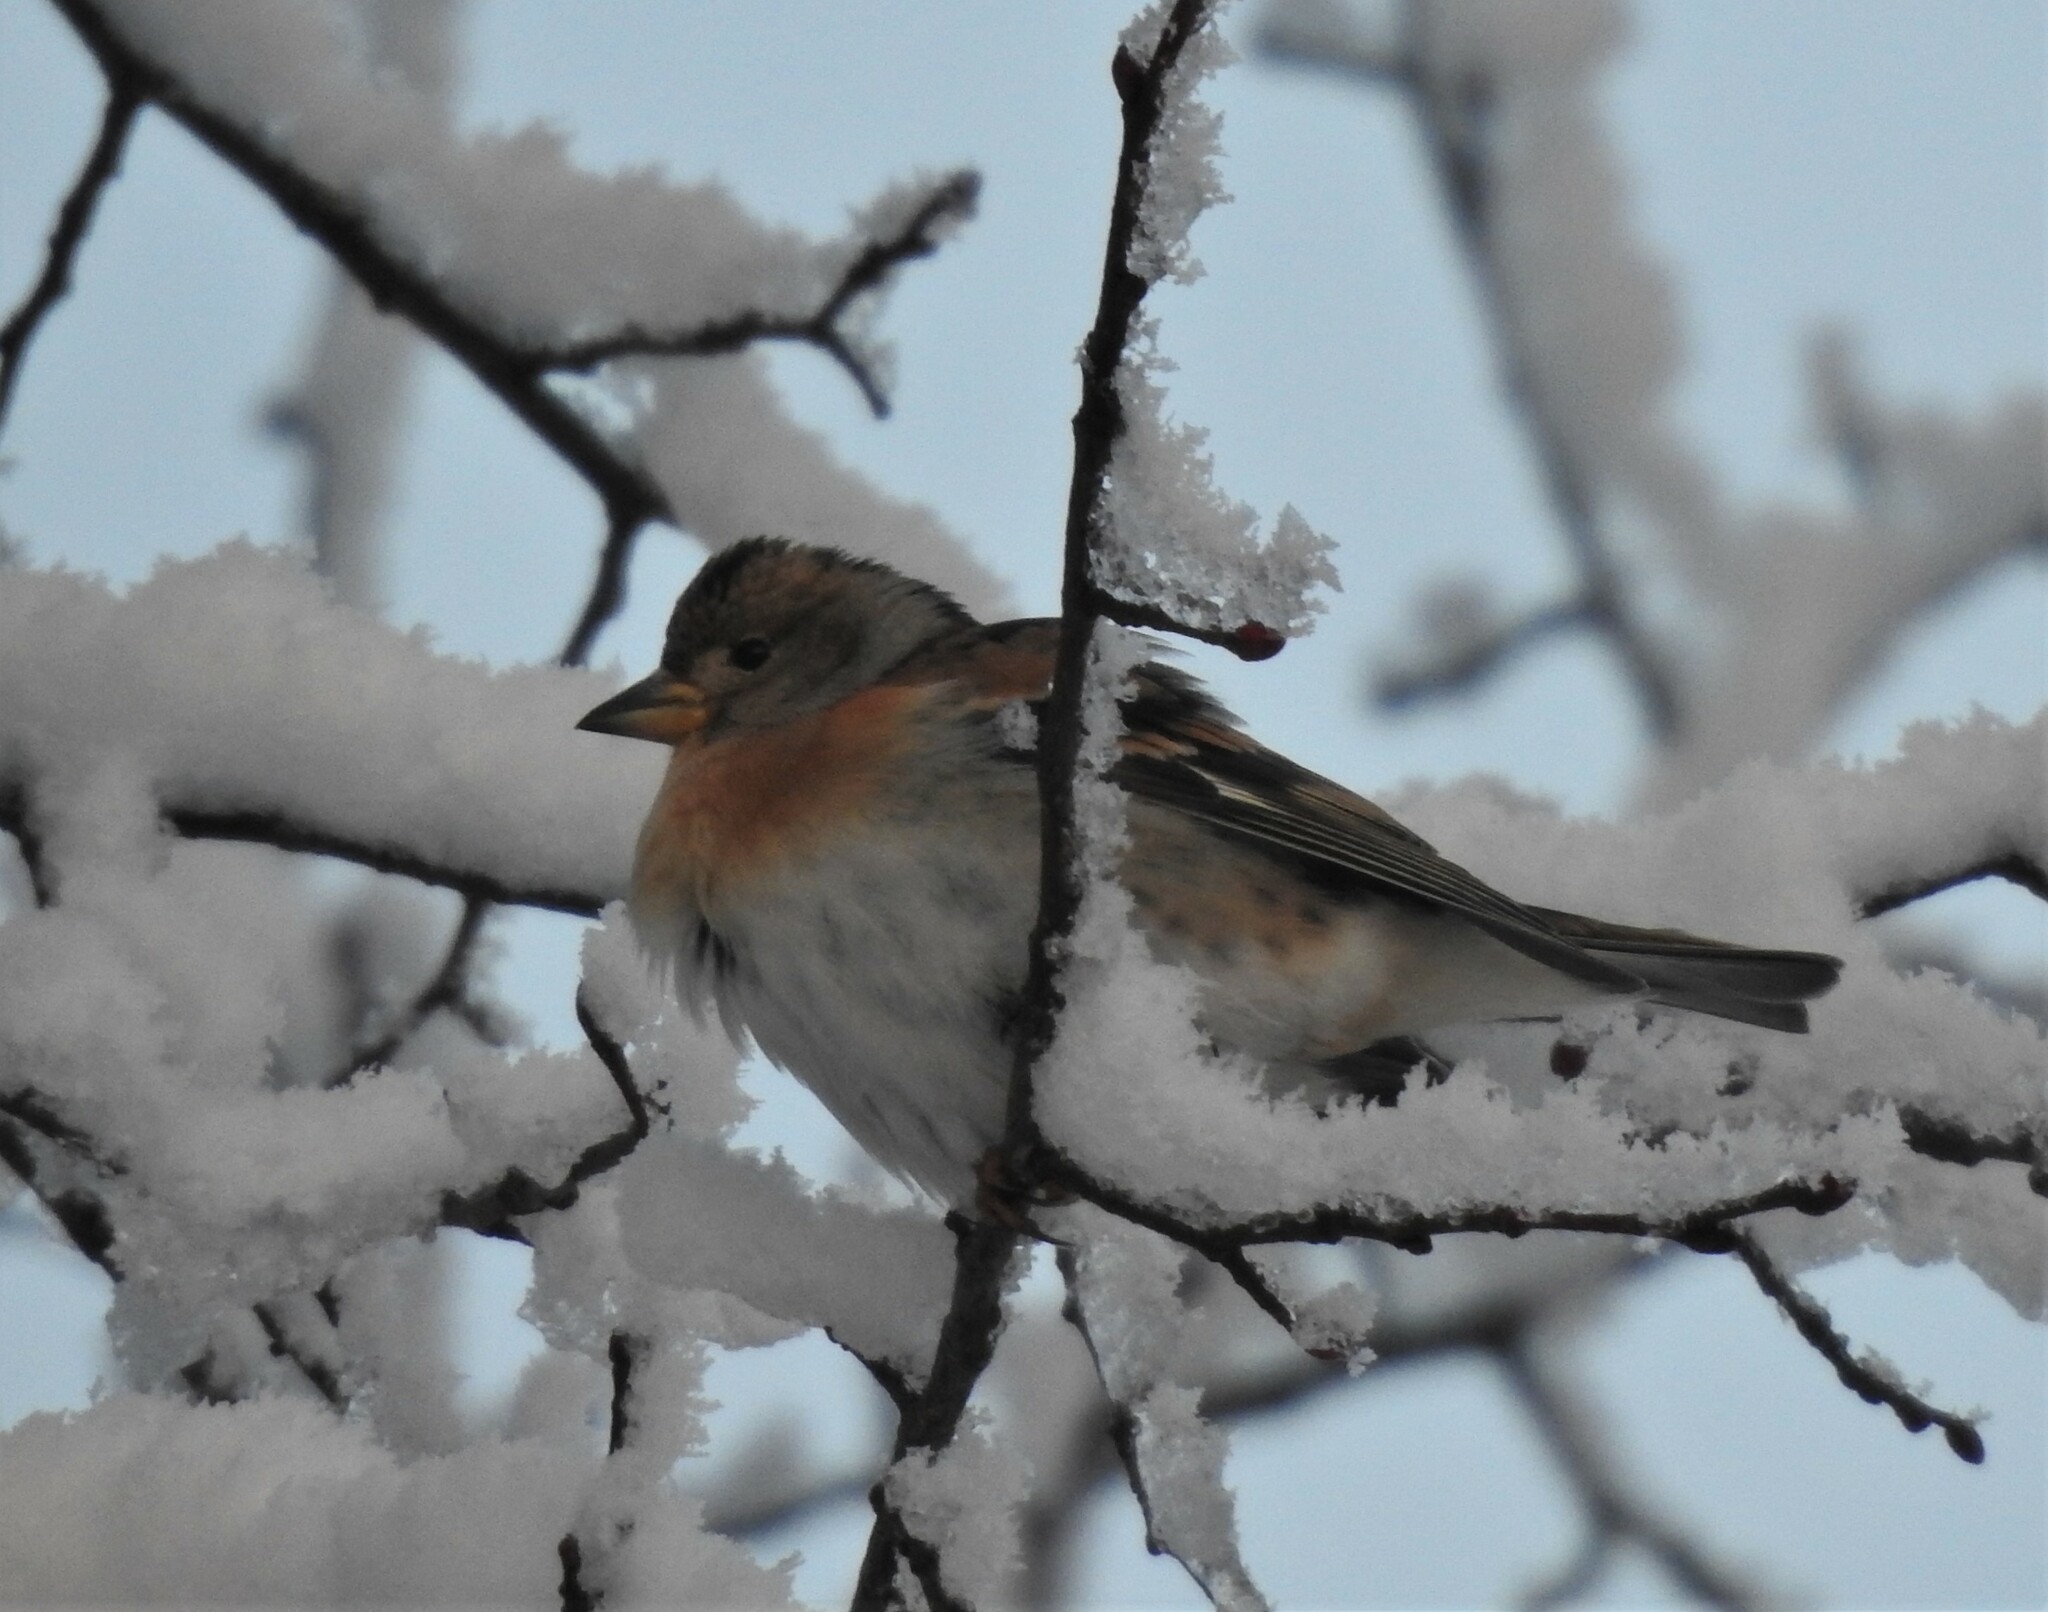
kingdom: Animalia
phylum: Chordata
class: Aves
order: Passeriformes
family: Fringillidae
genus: Fringilla
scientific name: Fringilla montifringilla
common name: Brambling
